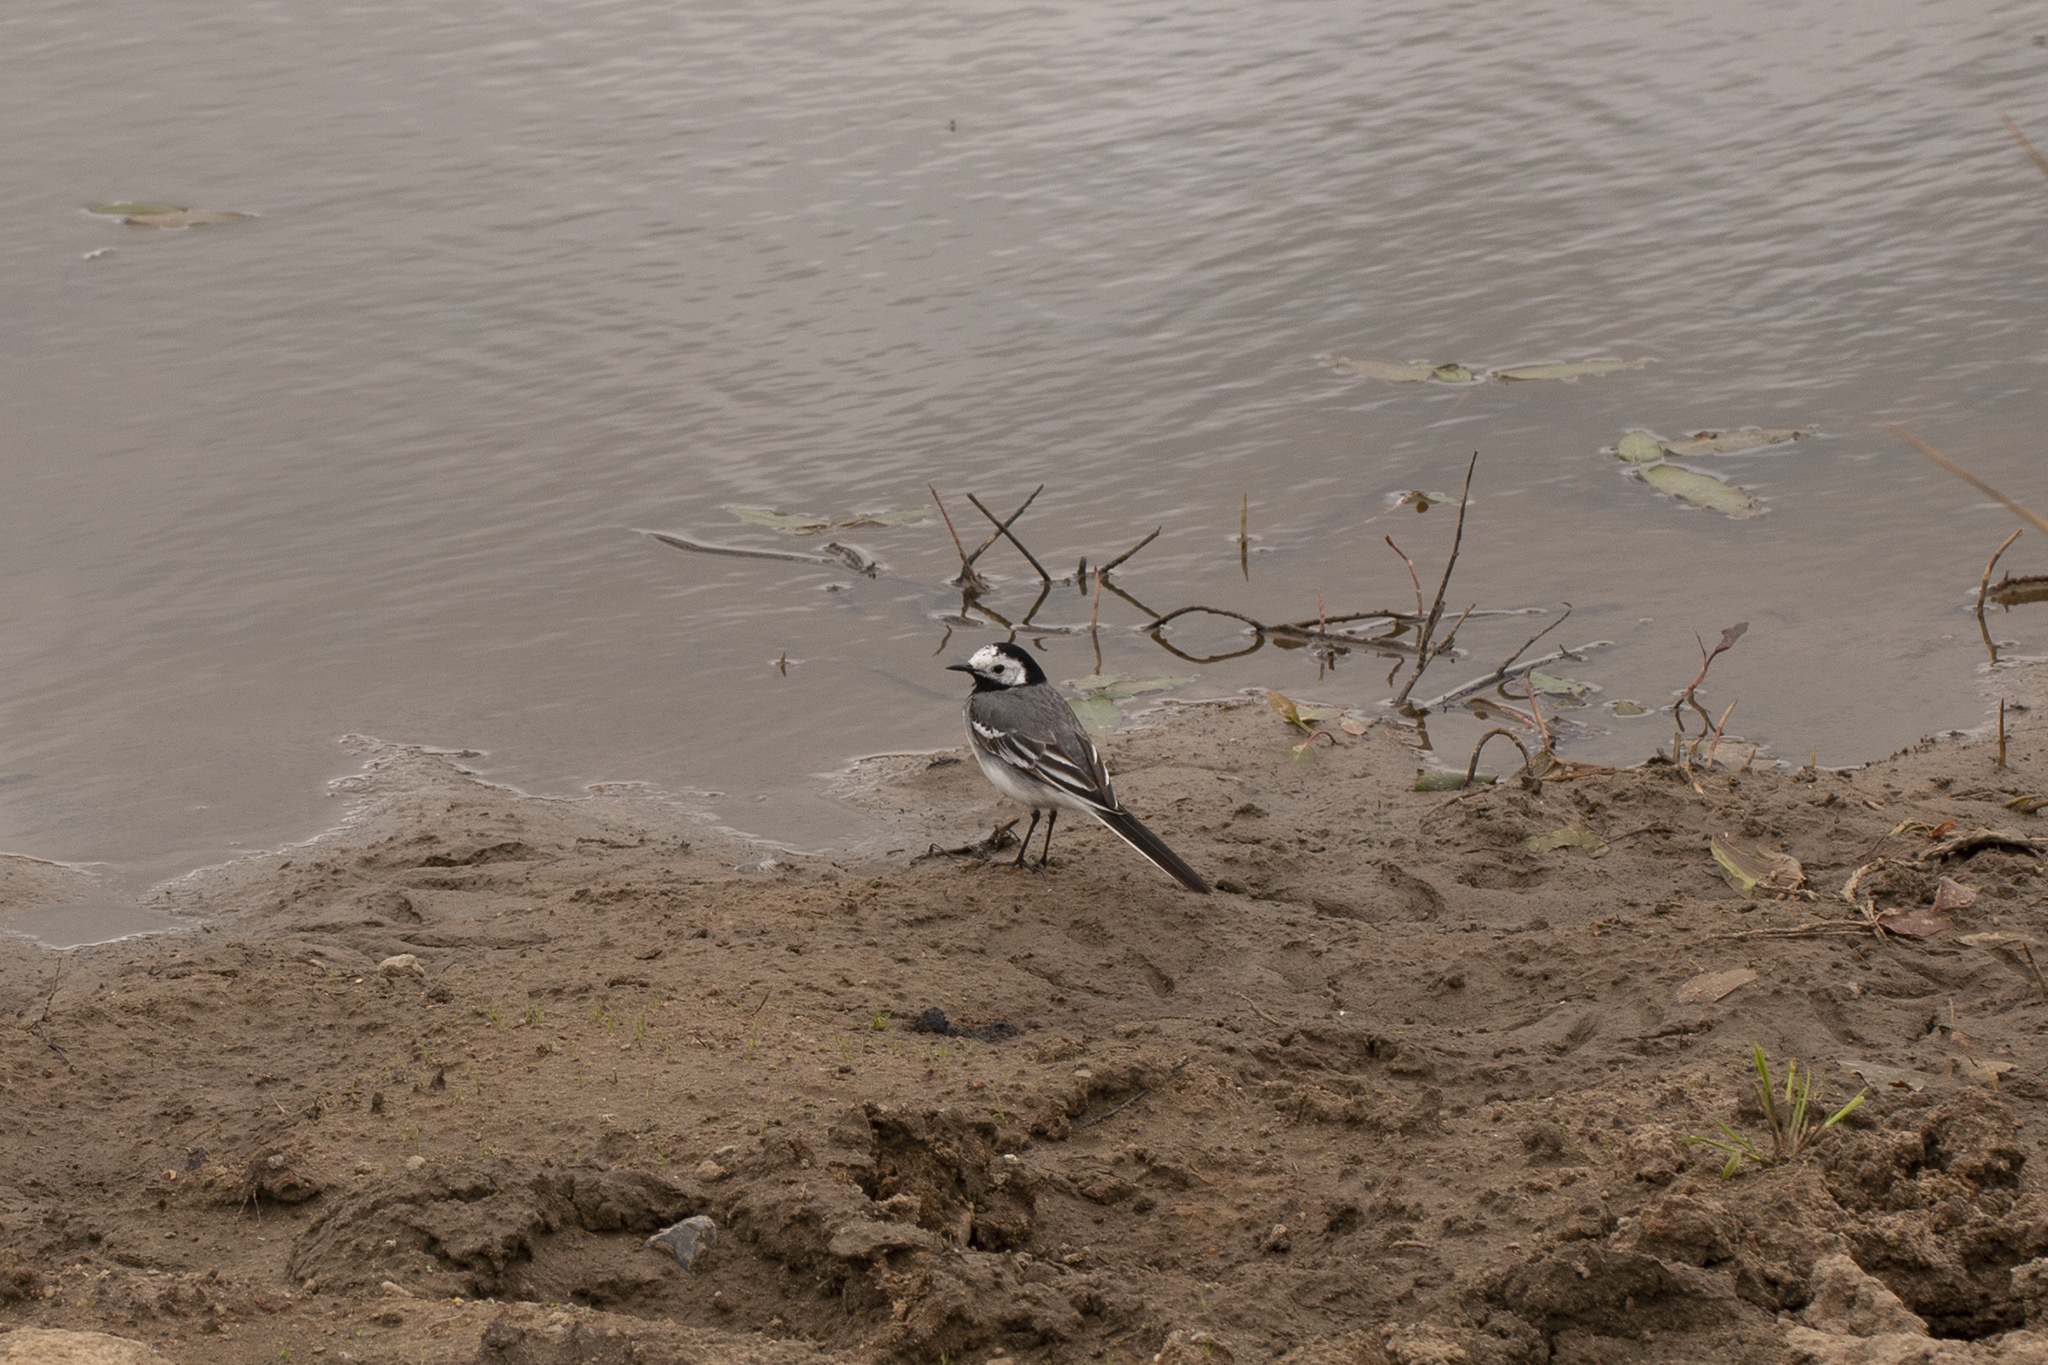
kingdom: Animalia
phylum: Chordata
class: Aves
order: Passeriformes
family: Motacillidae
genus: Motacilla
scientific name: Motacilla alba
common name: White wagtail
